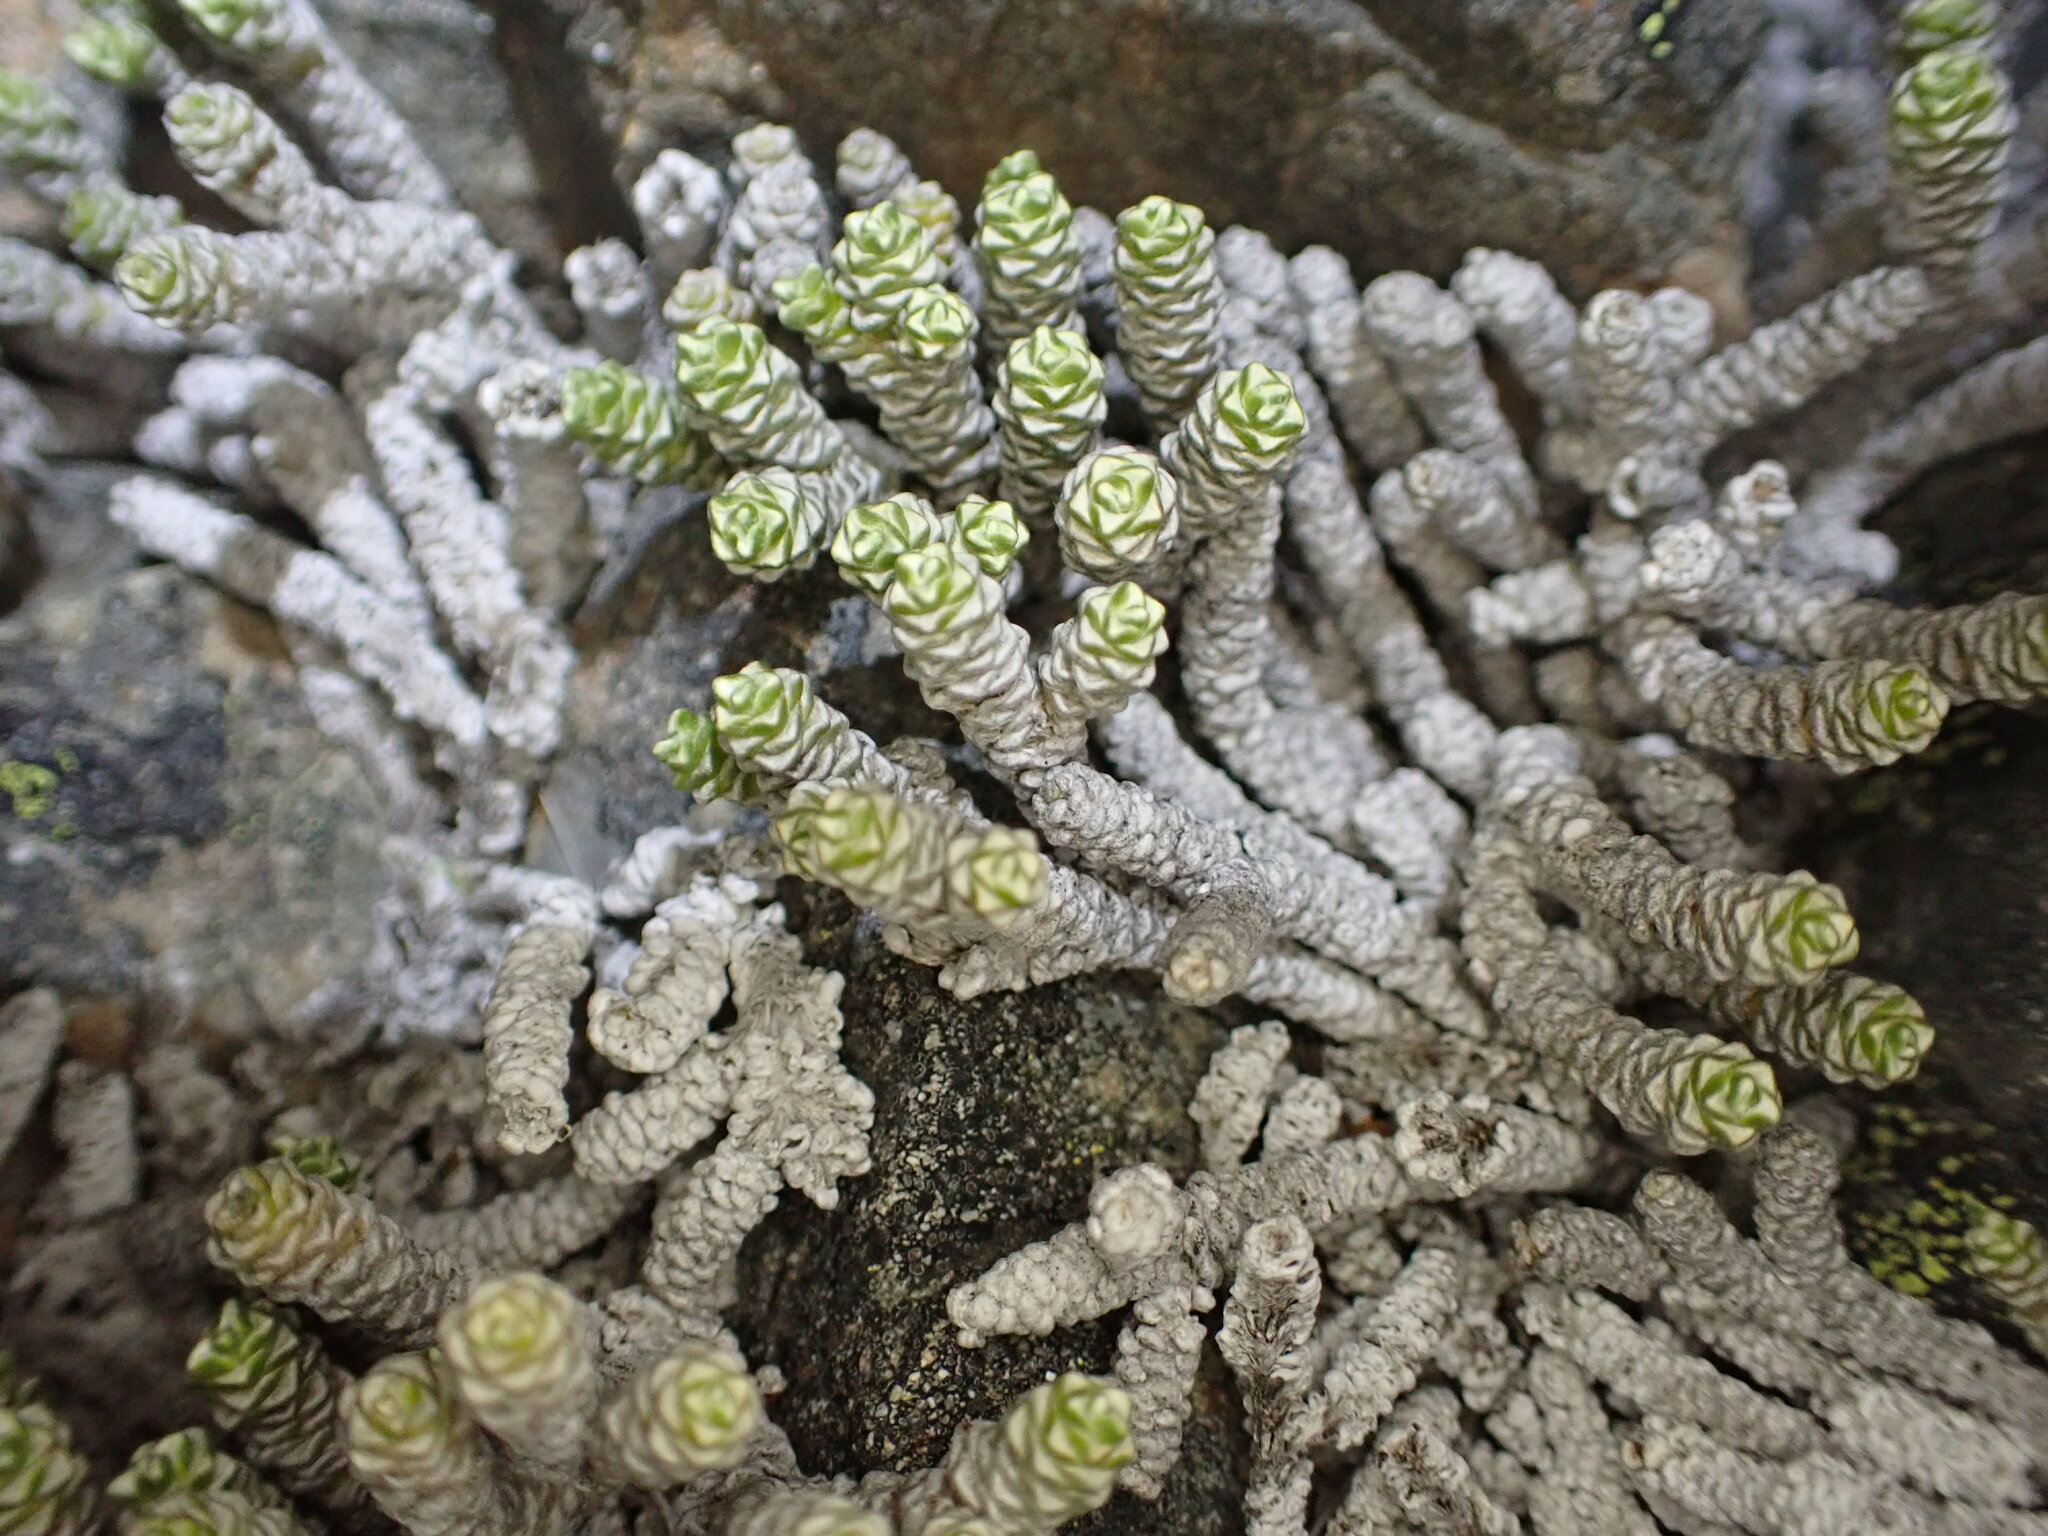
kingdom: Plantae
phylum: Tracheophyta
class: Magnoliopsida
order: Asterales
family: Asteraceae
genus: Raoulia
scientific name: Raoulia petriensis
